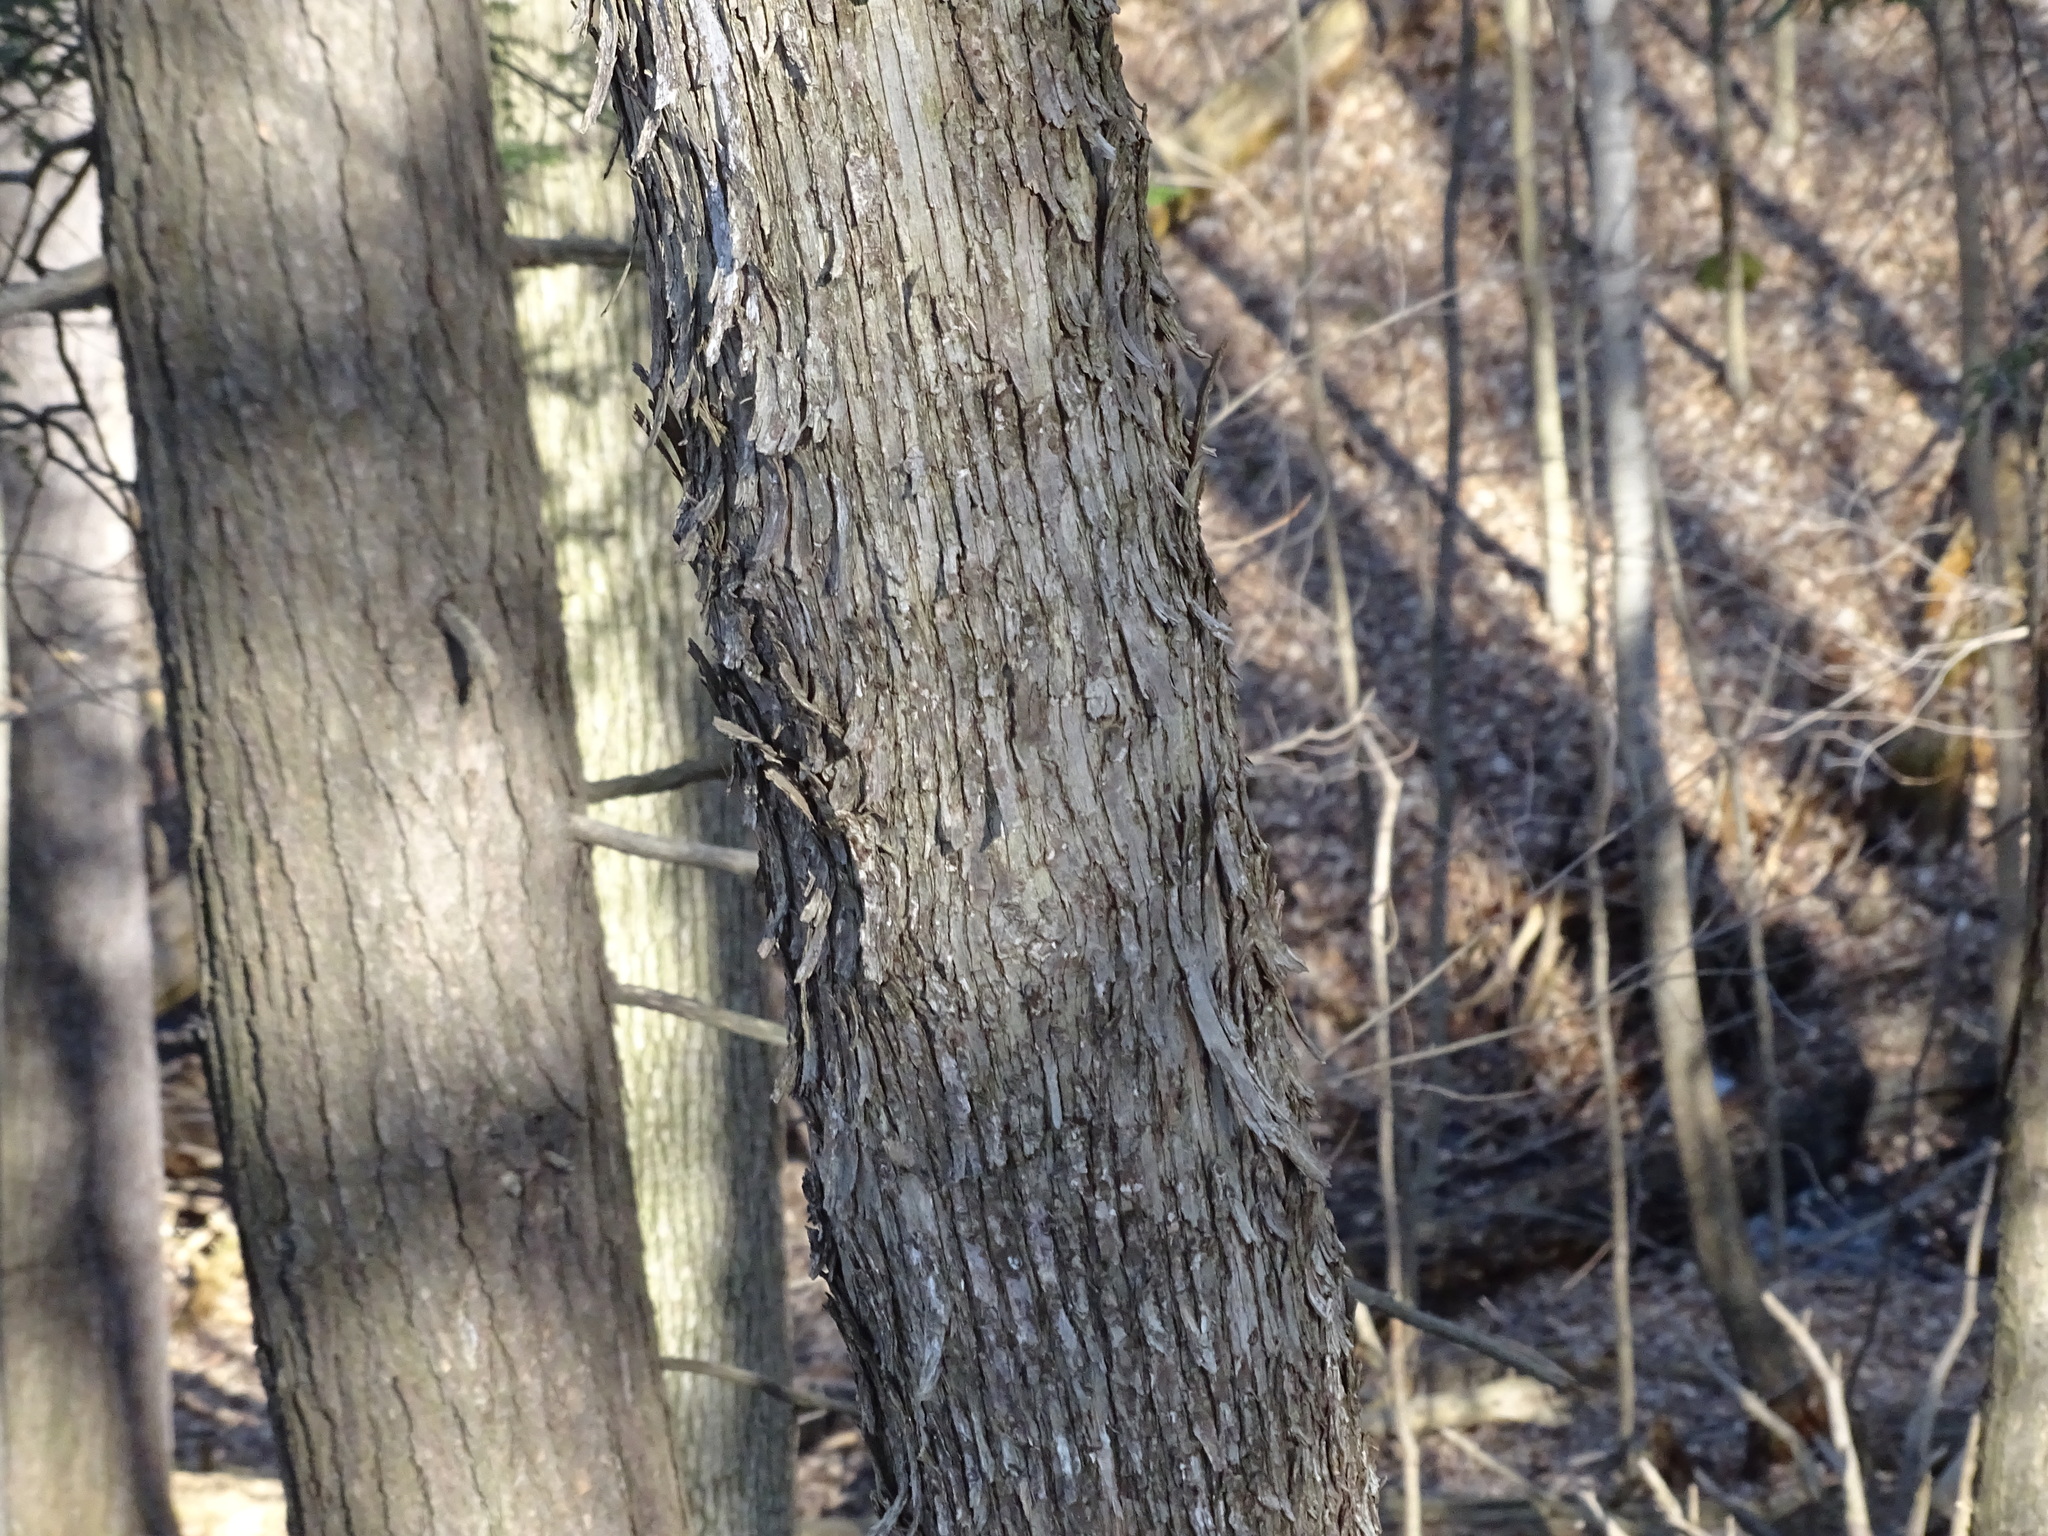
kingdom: Plantae
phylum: Tracheophyta
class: Magnoliopsida
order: Fagales
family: Betulaceae
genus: Ostrya
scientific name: Ostrya virginiana
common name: Ironwood
